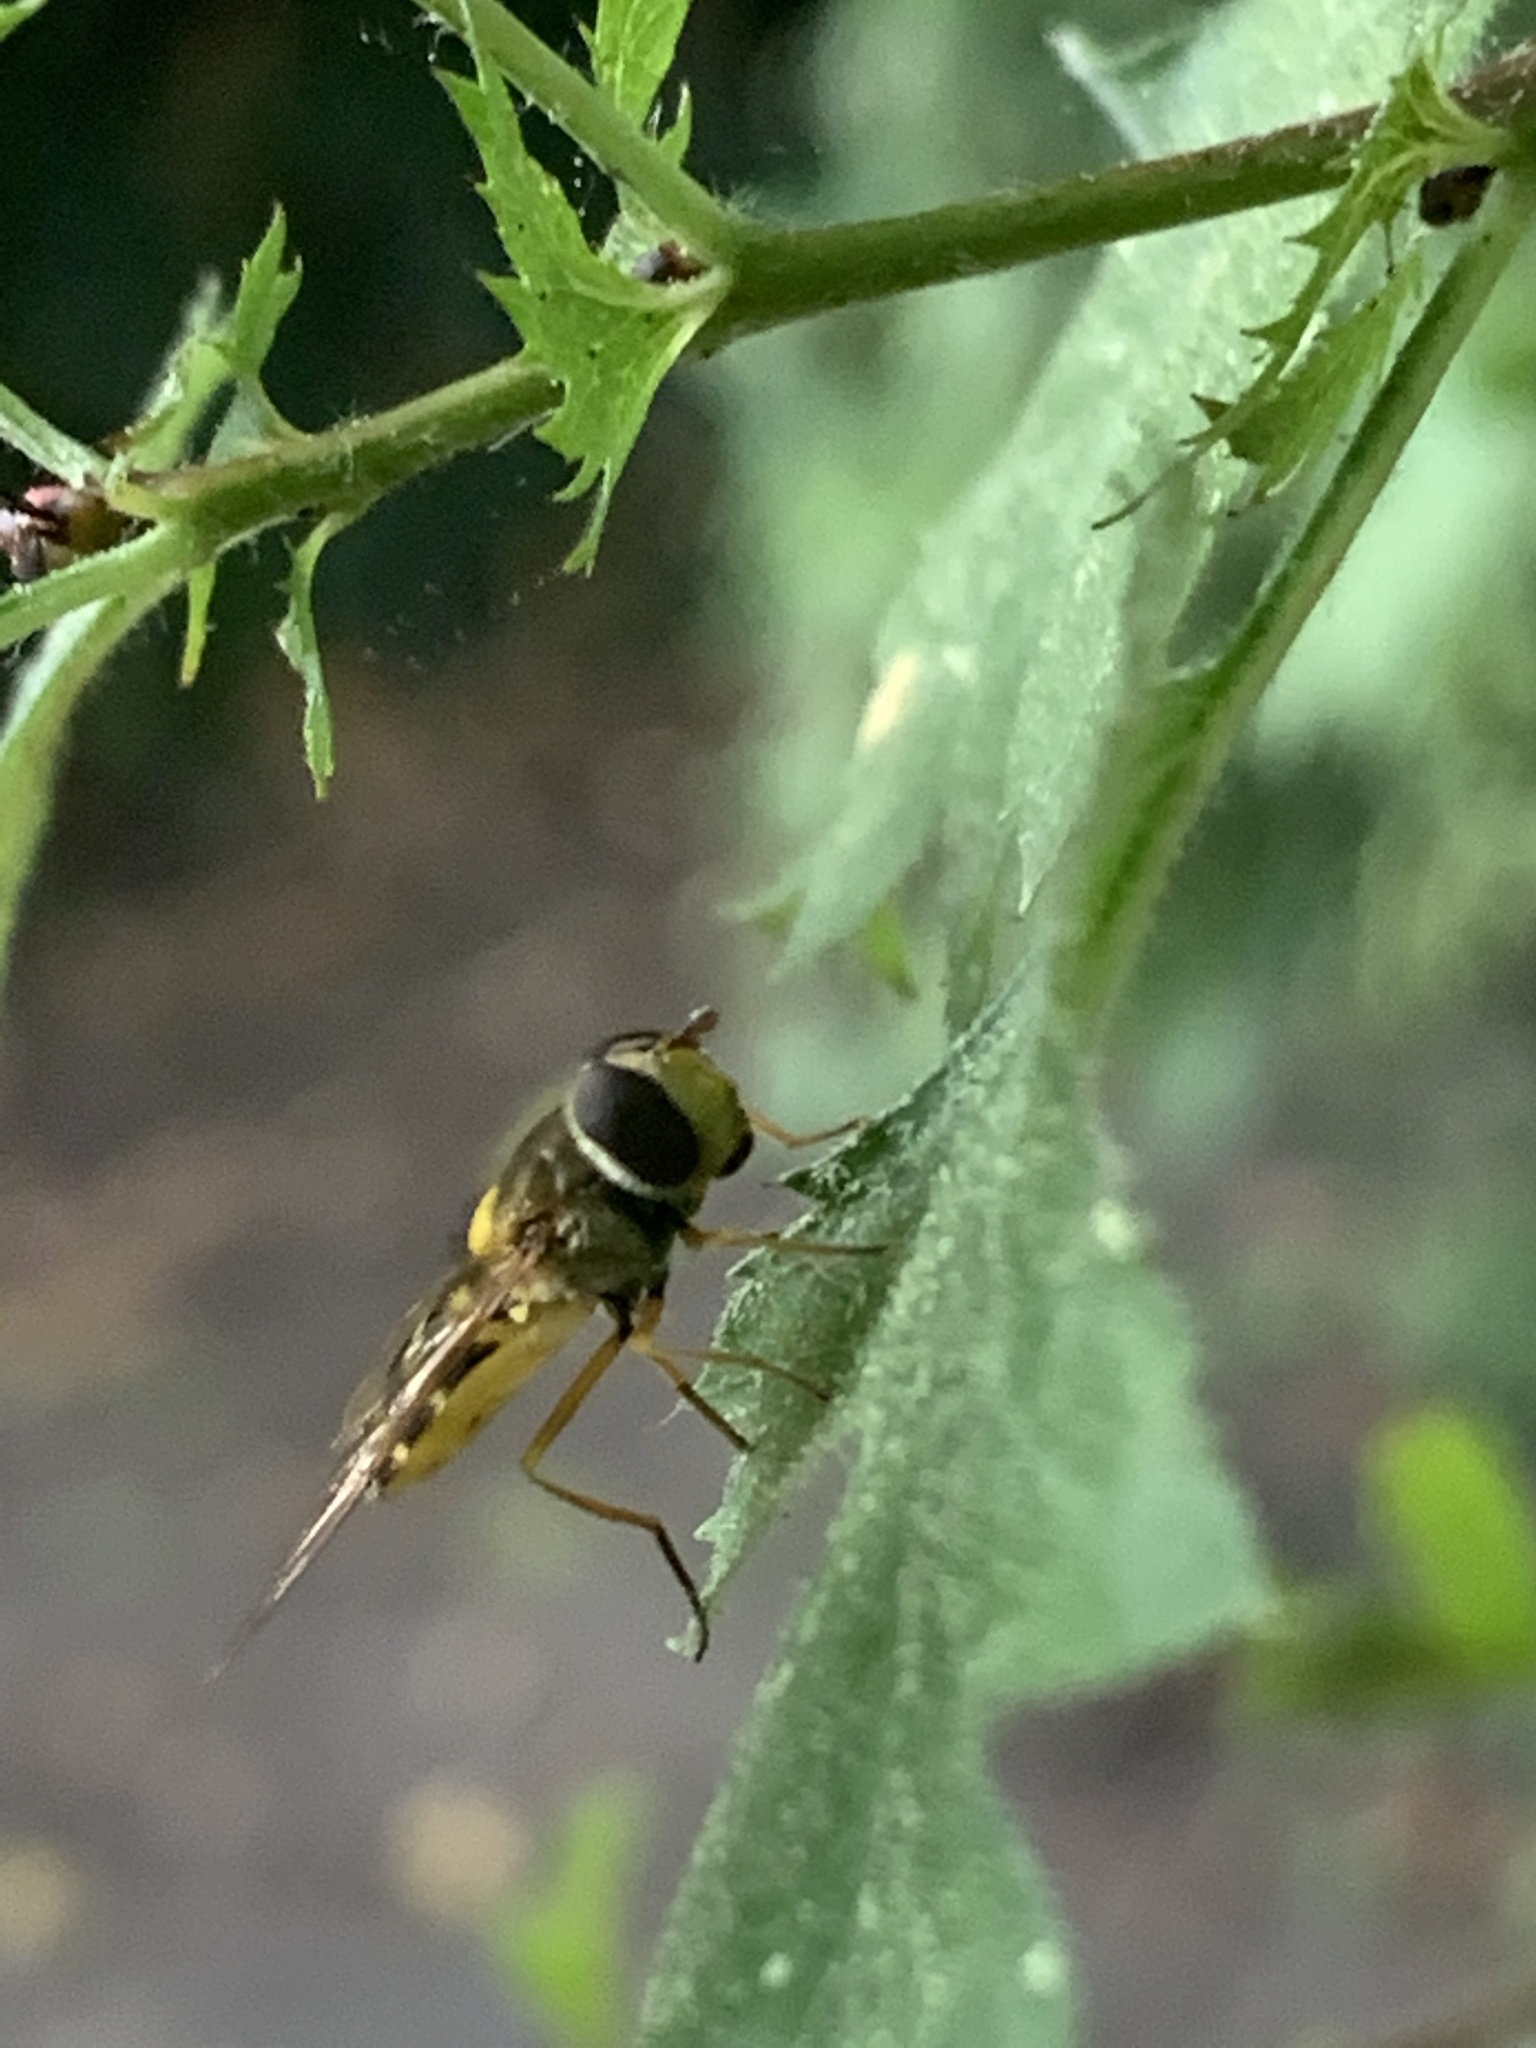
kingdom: Animalia
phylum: Arthropoda
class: Insecta
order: Diptera
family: Syrphidae
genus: Syrphus
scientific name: Syrphus ribesii
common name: Common flower fly
